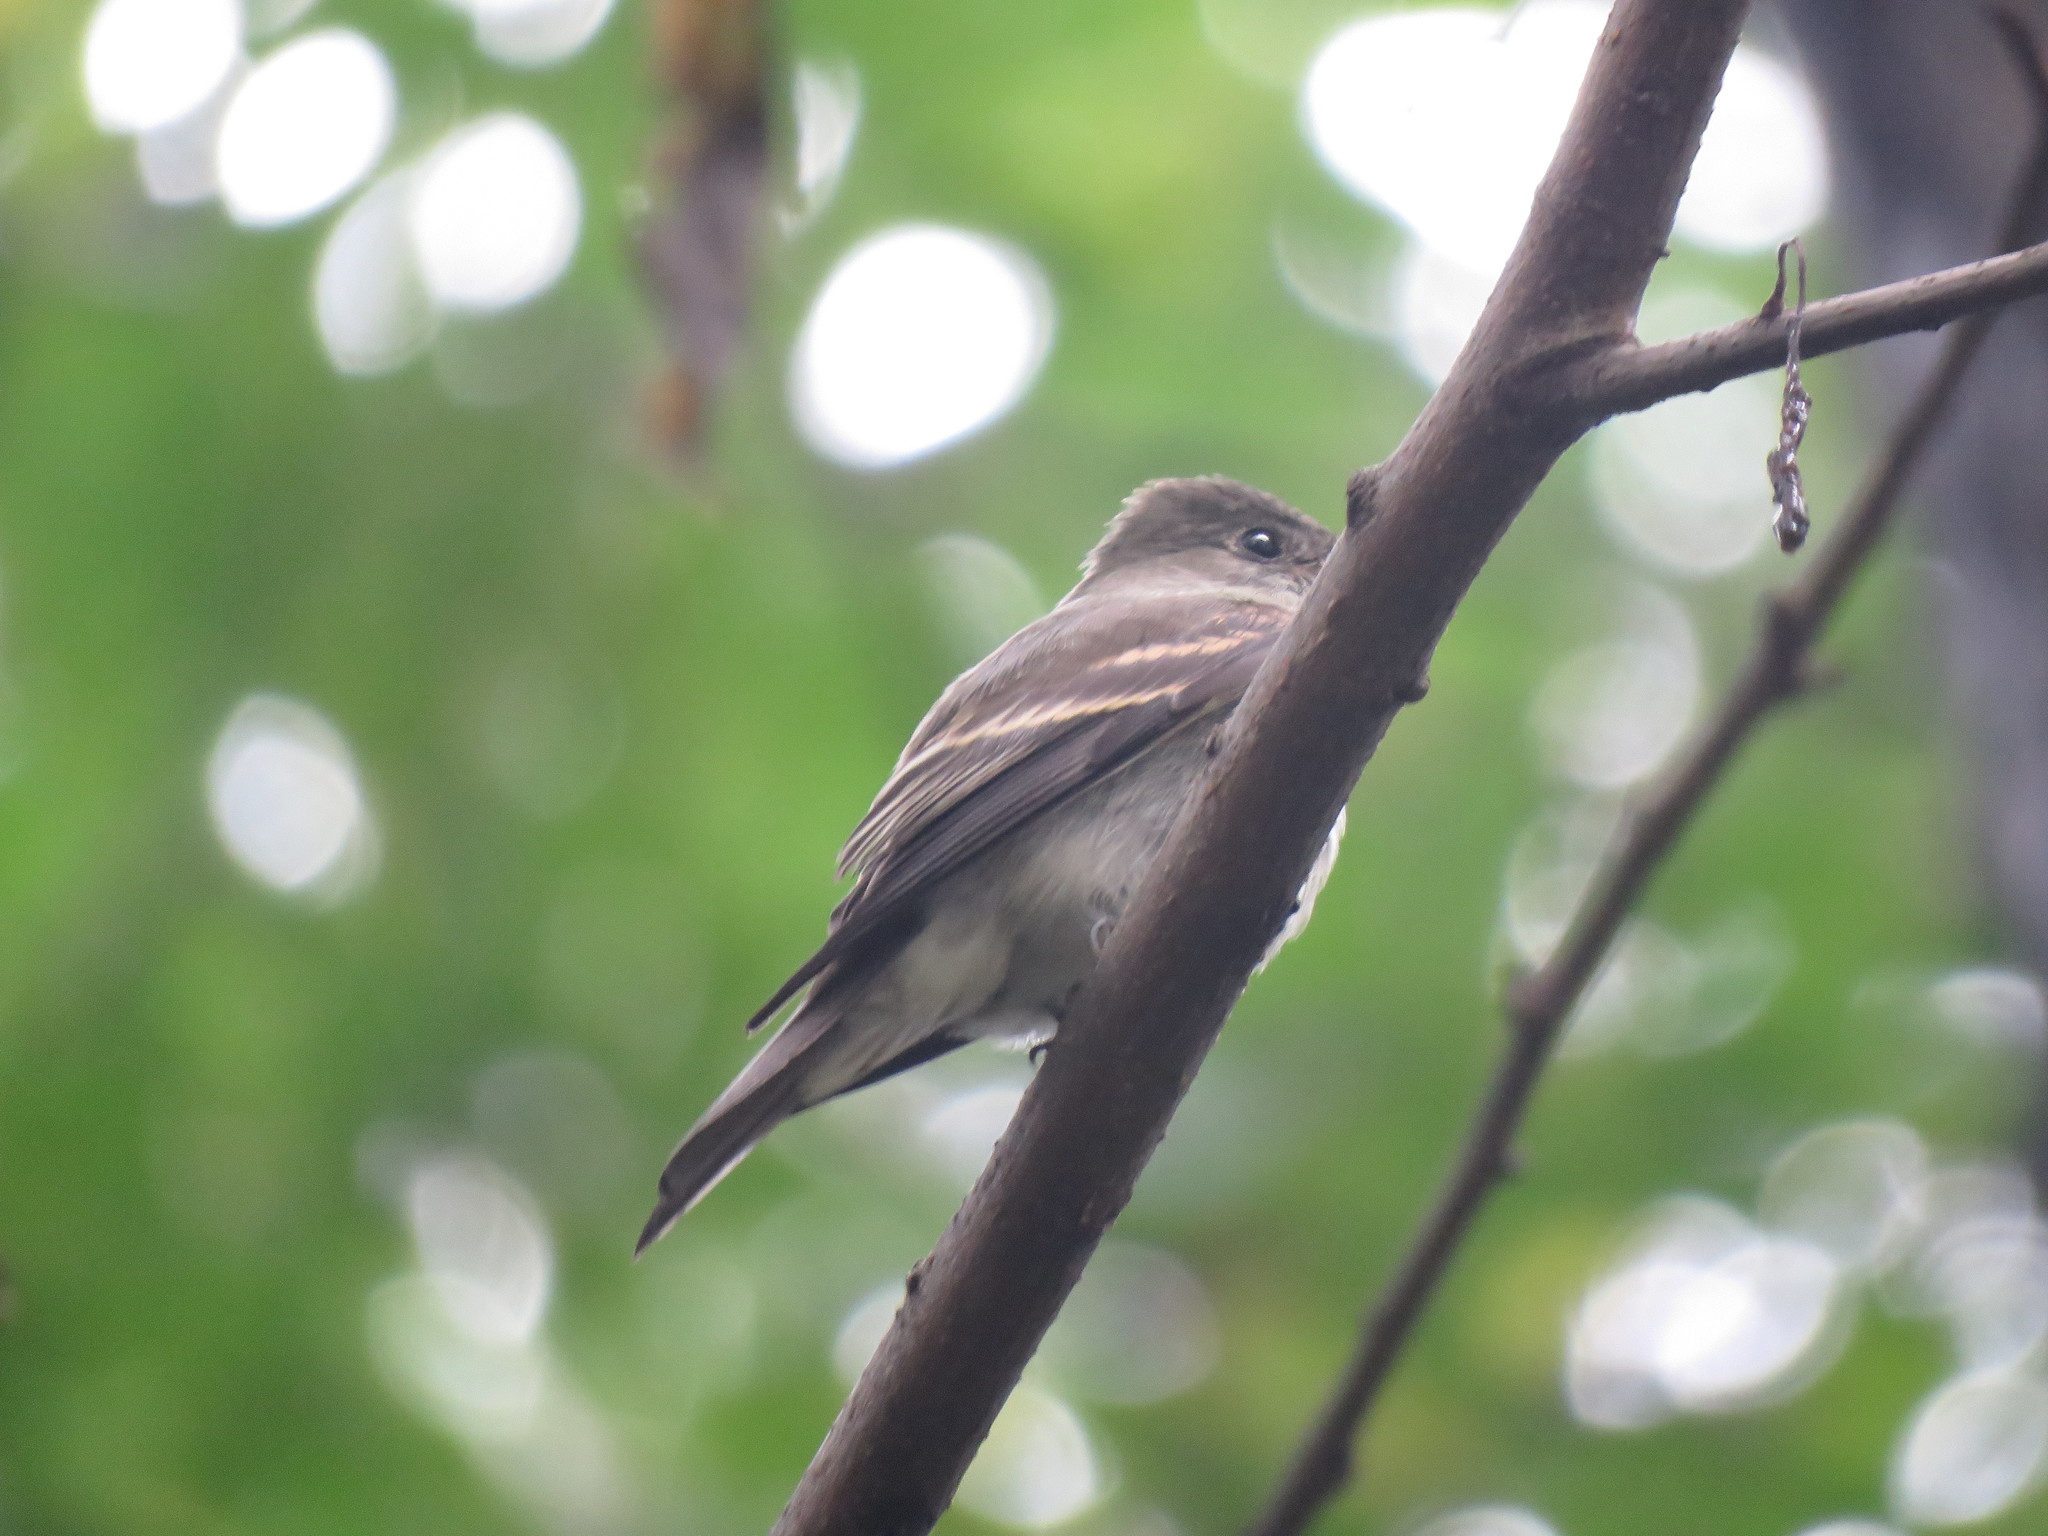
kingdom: Animalia
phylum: Chordata
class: Aves
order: Passeriformes
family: Tyrannidae
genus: Contopus
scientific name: Contopus virens
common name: Eastern wood-pewee
